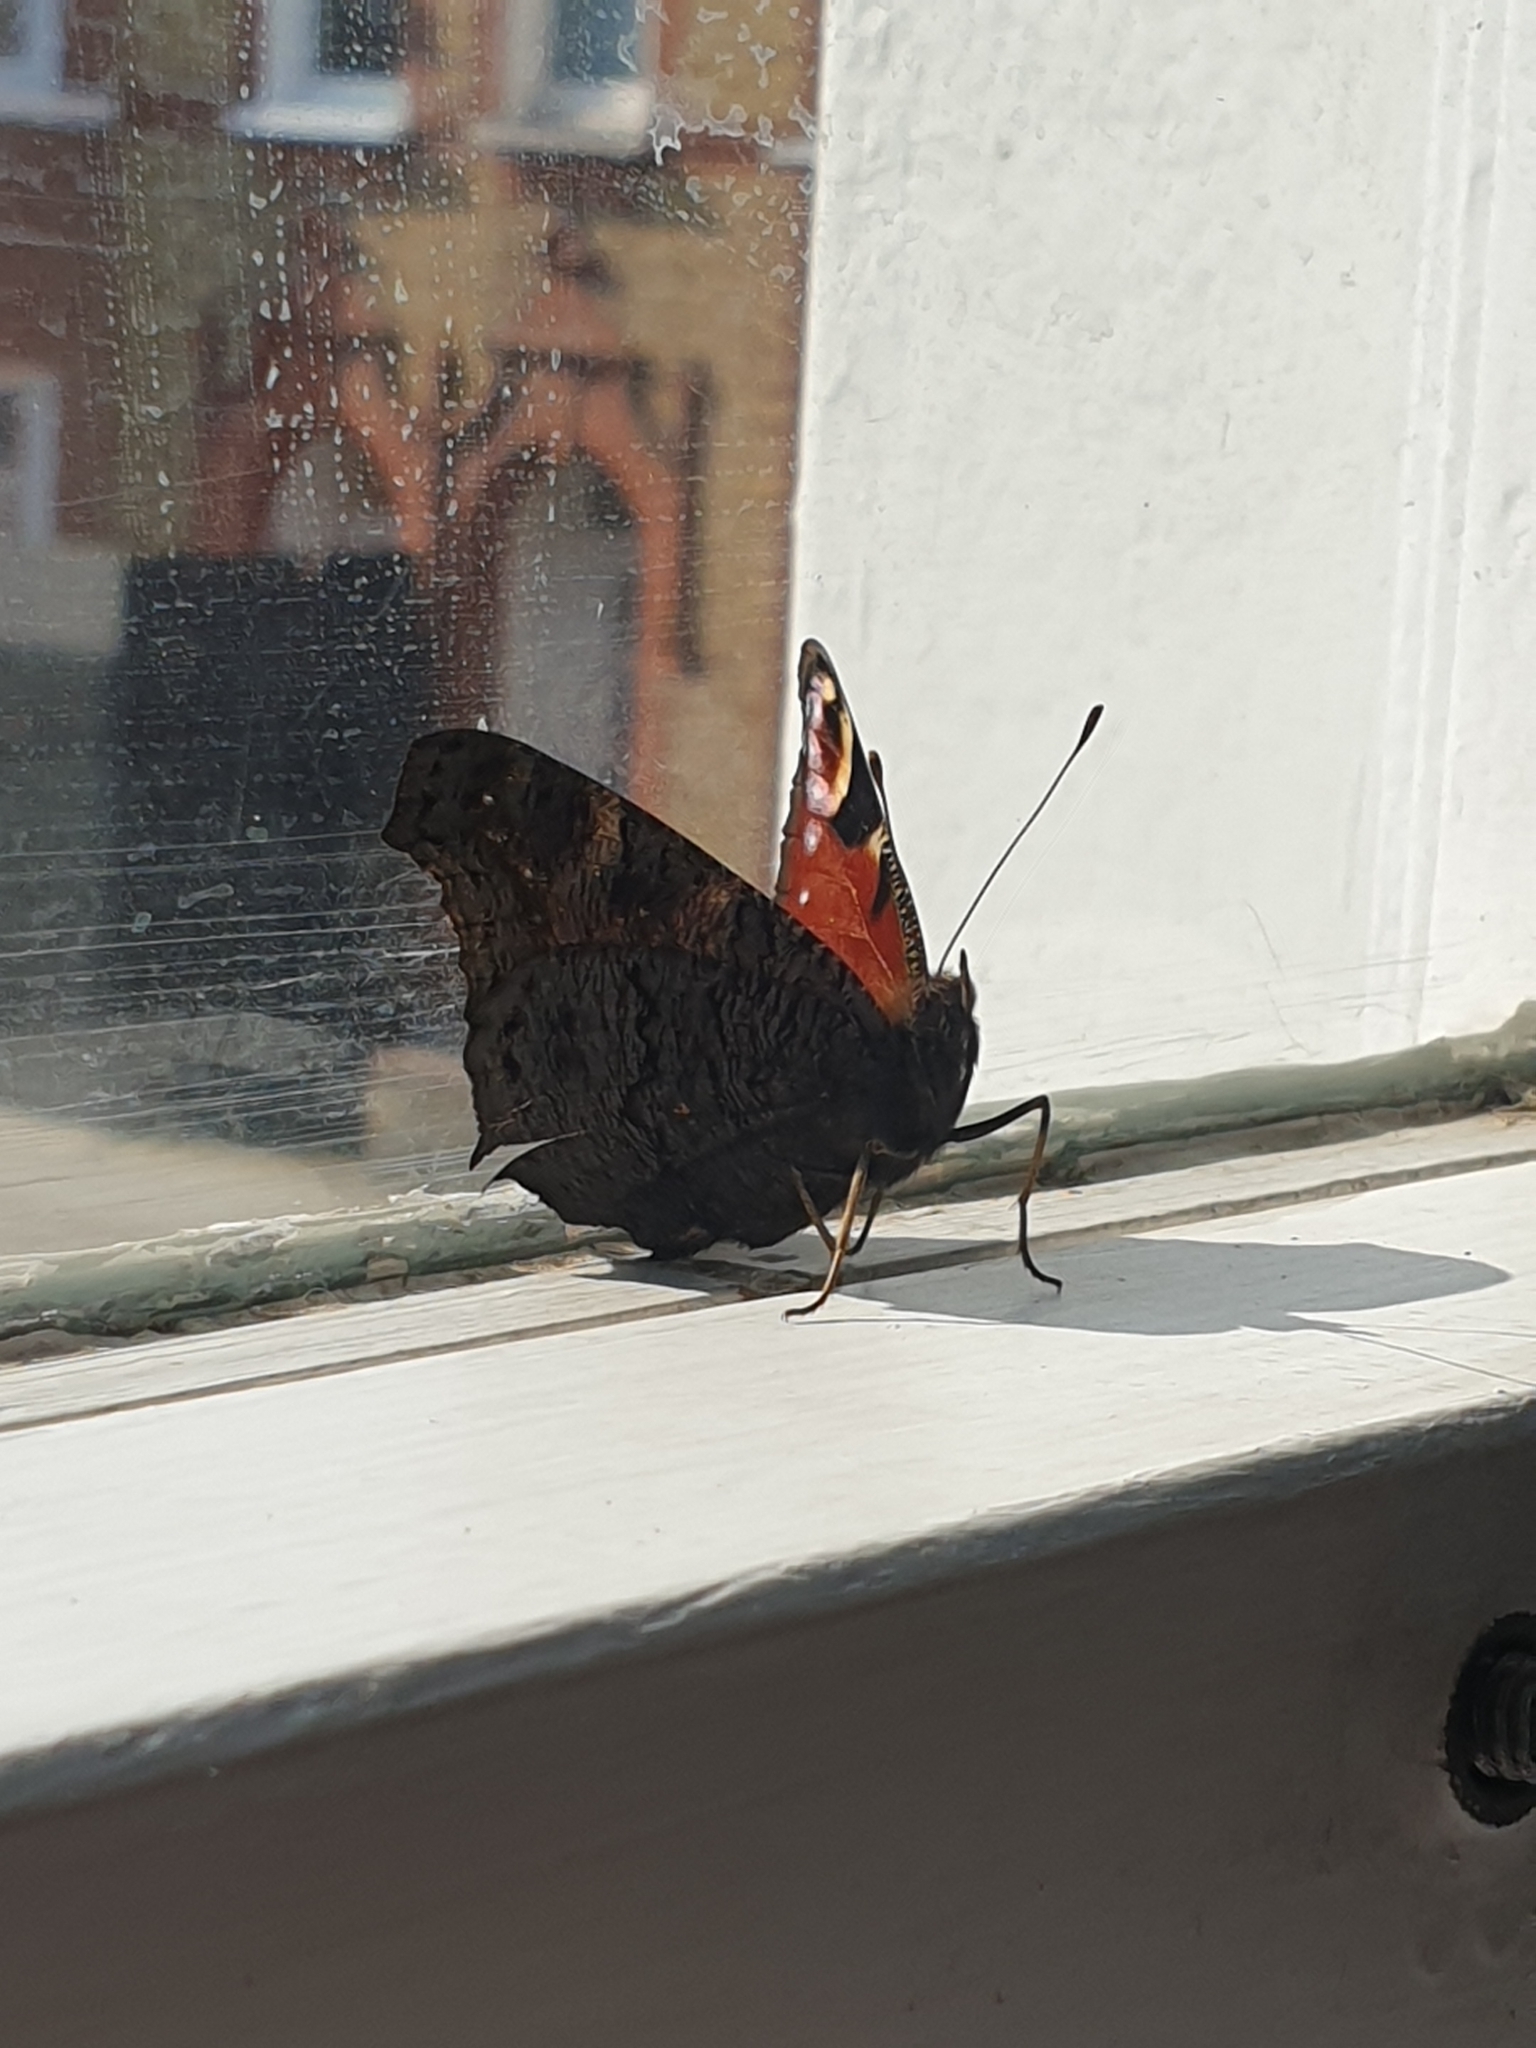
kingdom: Animalia
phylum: Arthropoda
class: Insecta
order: Lepidoptera
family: Nymphalidae
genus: Aglais
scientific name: Aglais io
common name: Peacock
